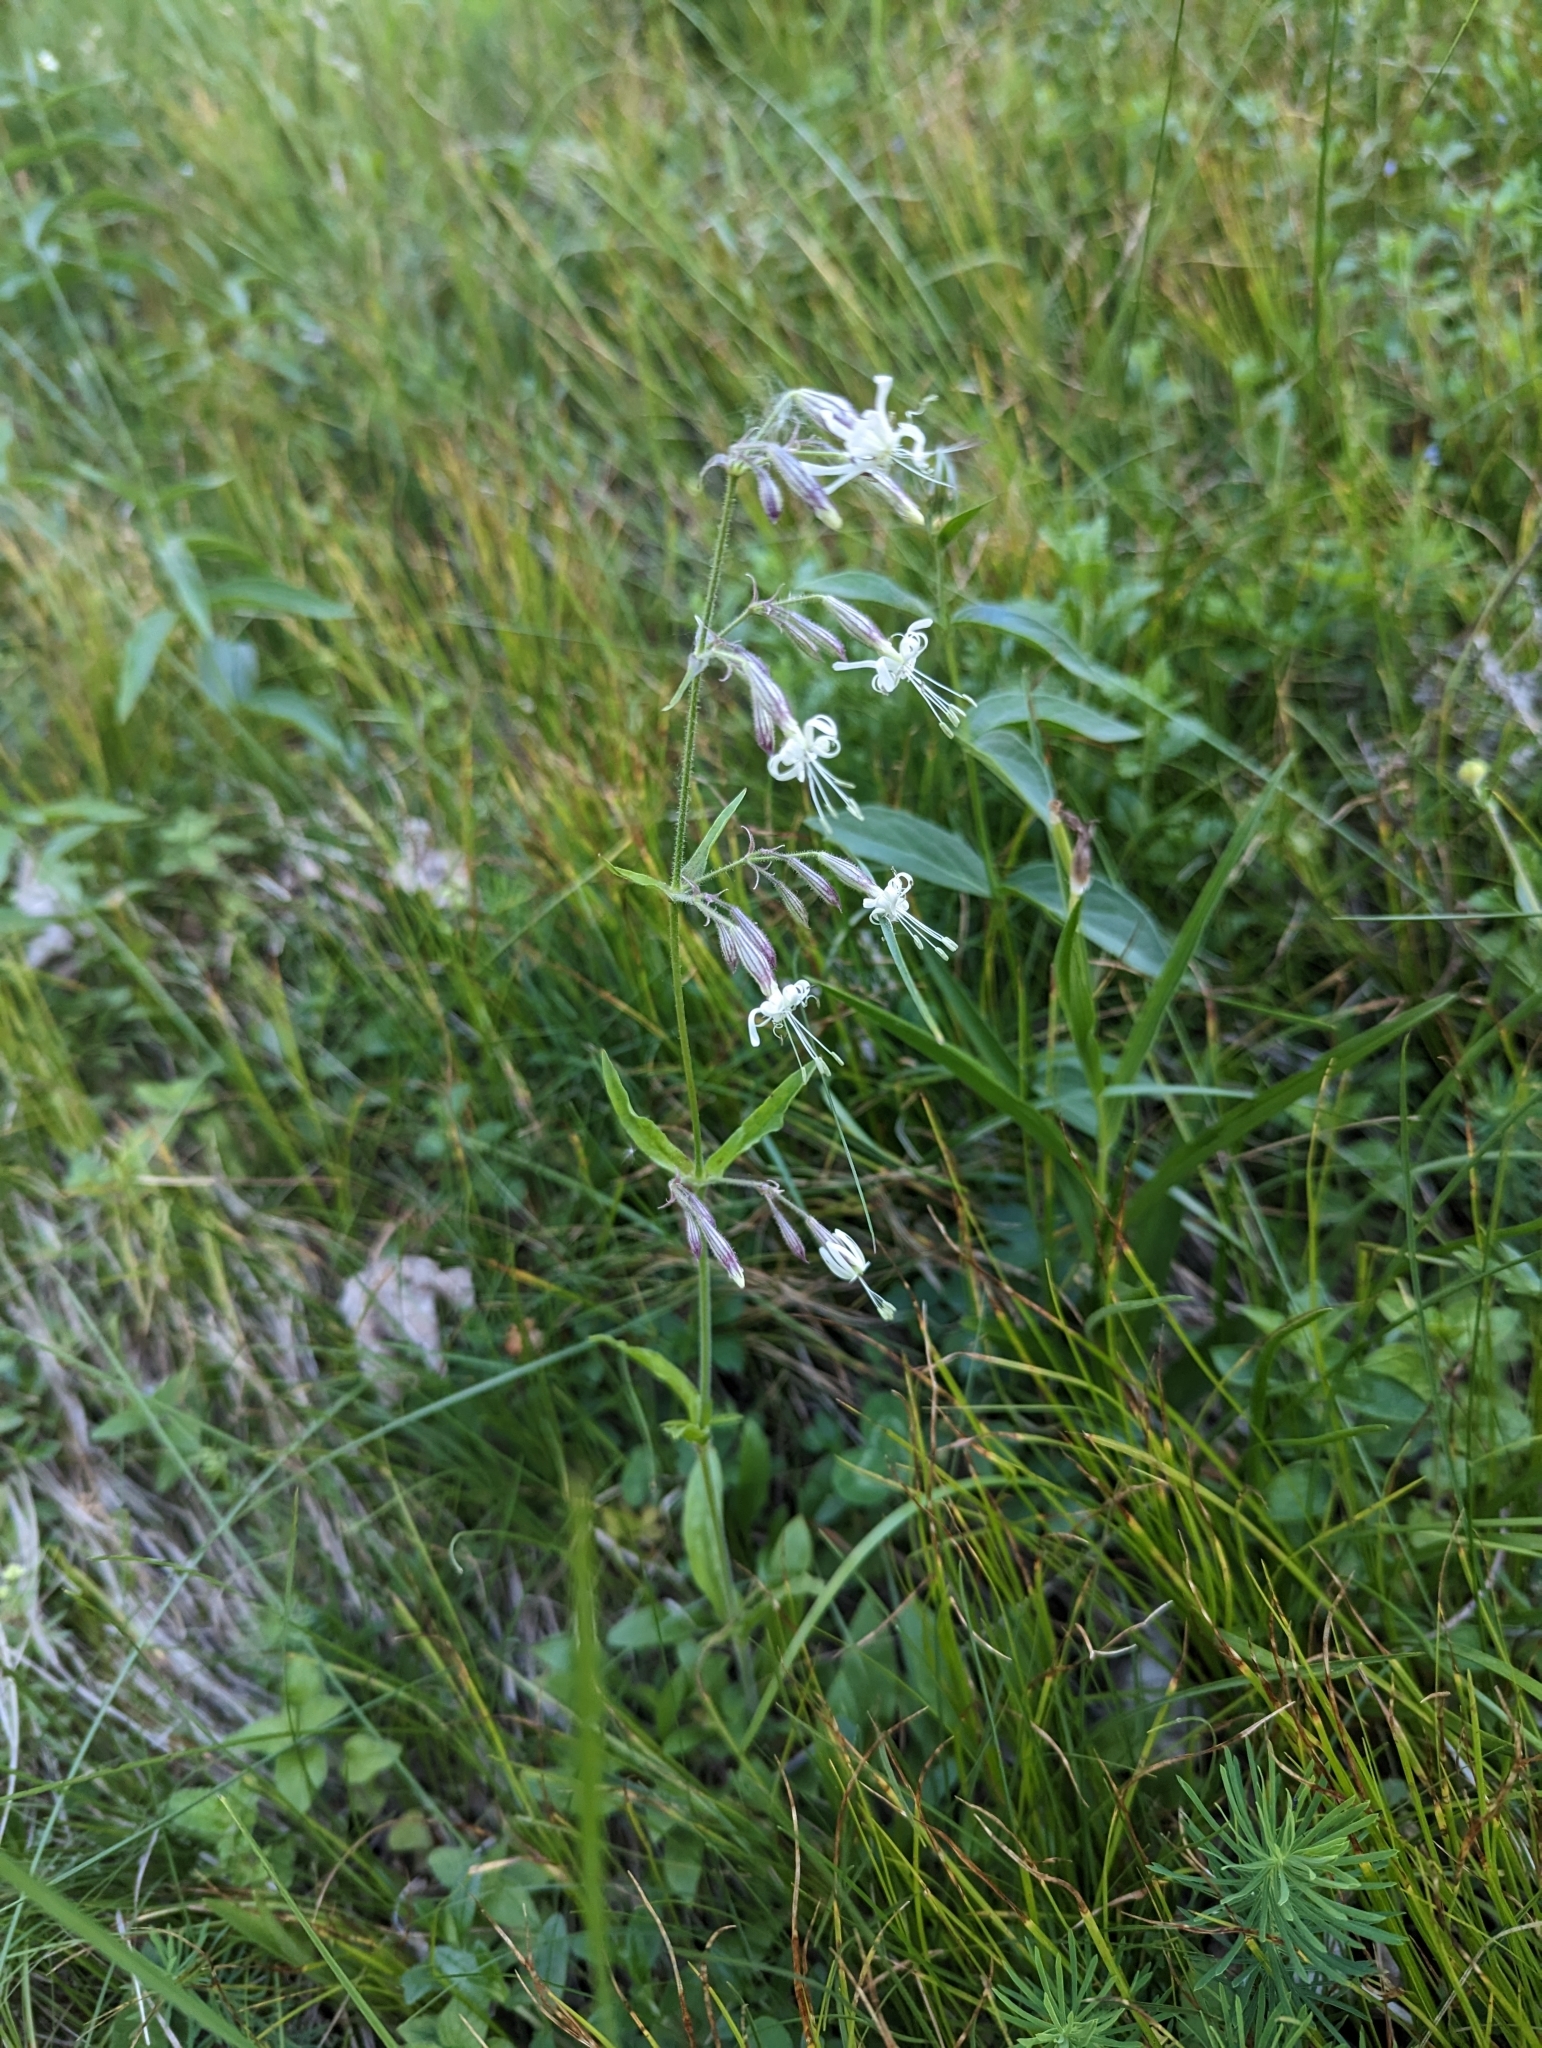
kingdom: Plantae
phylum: Tracheophyta
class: Magnoliopsida
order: Caryophyllales
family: Caryophyllaceae
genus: Silene
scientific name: Silene nutans
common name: Nottingham catchfly
